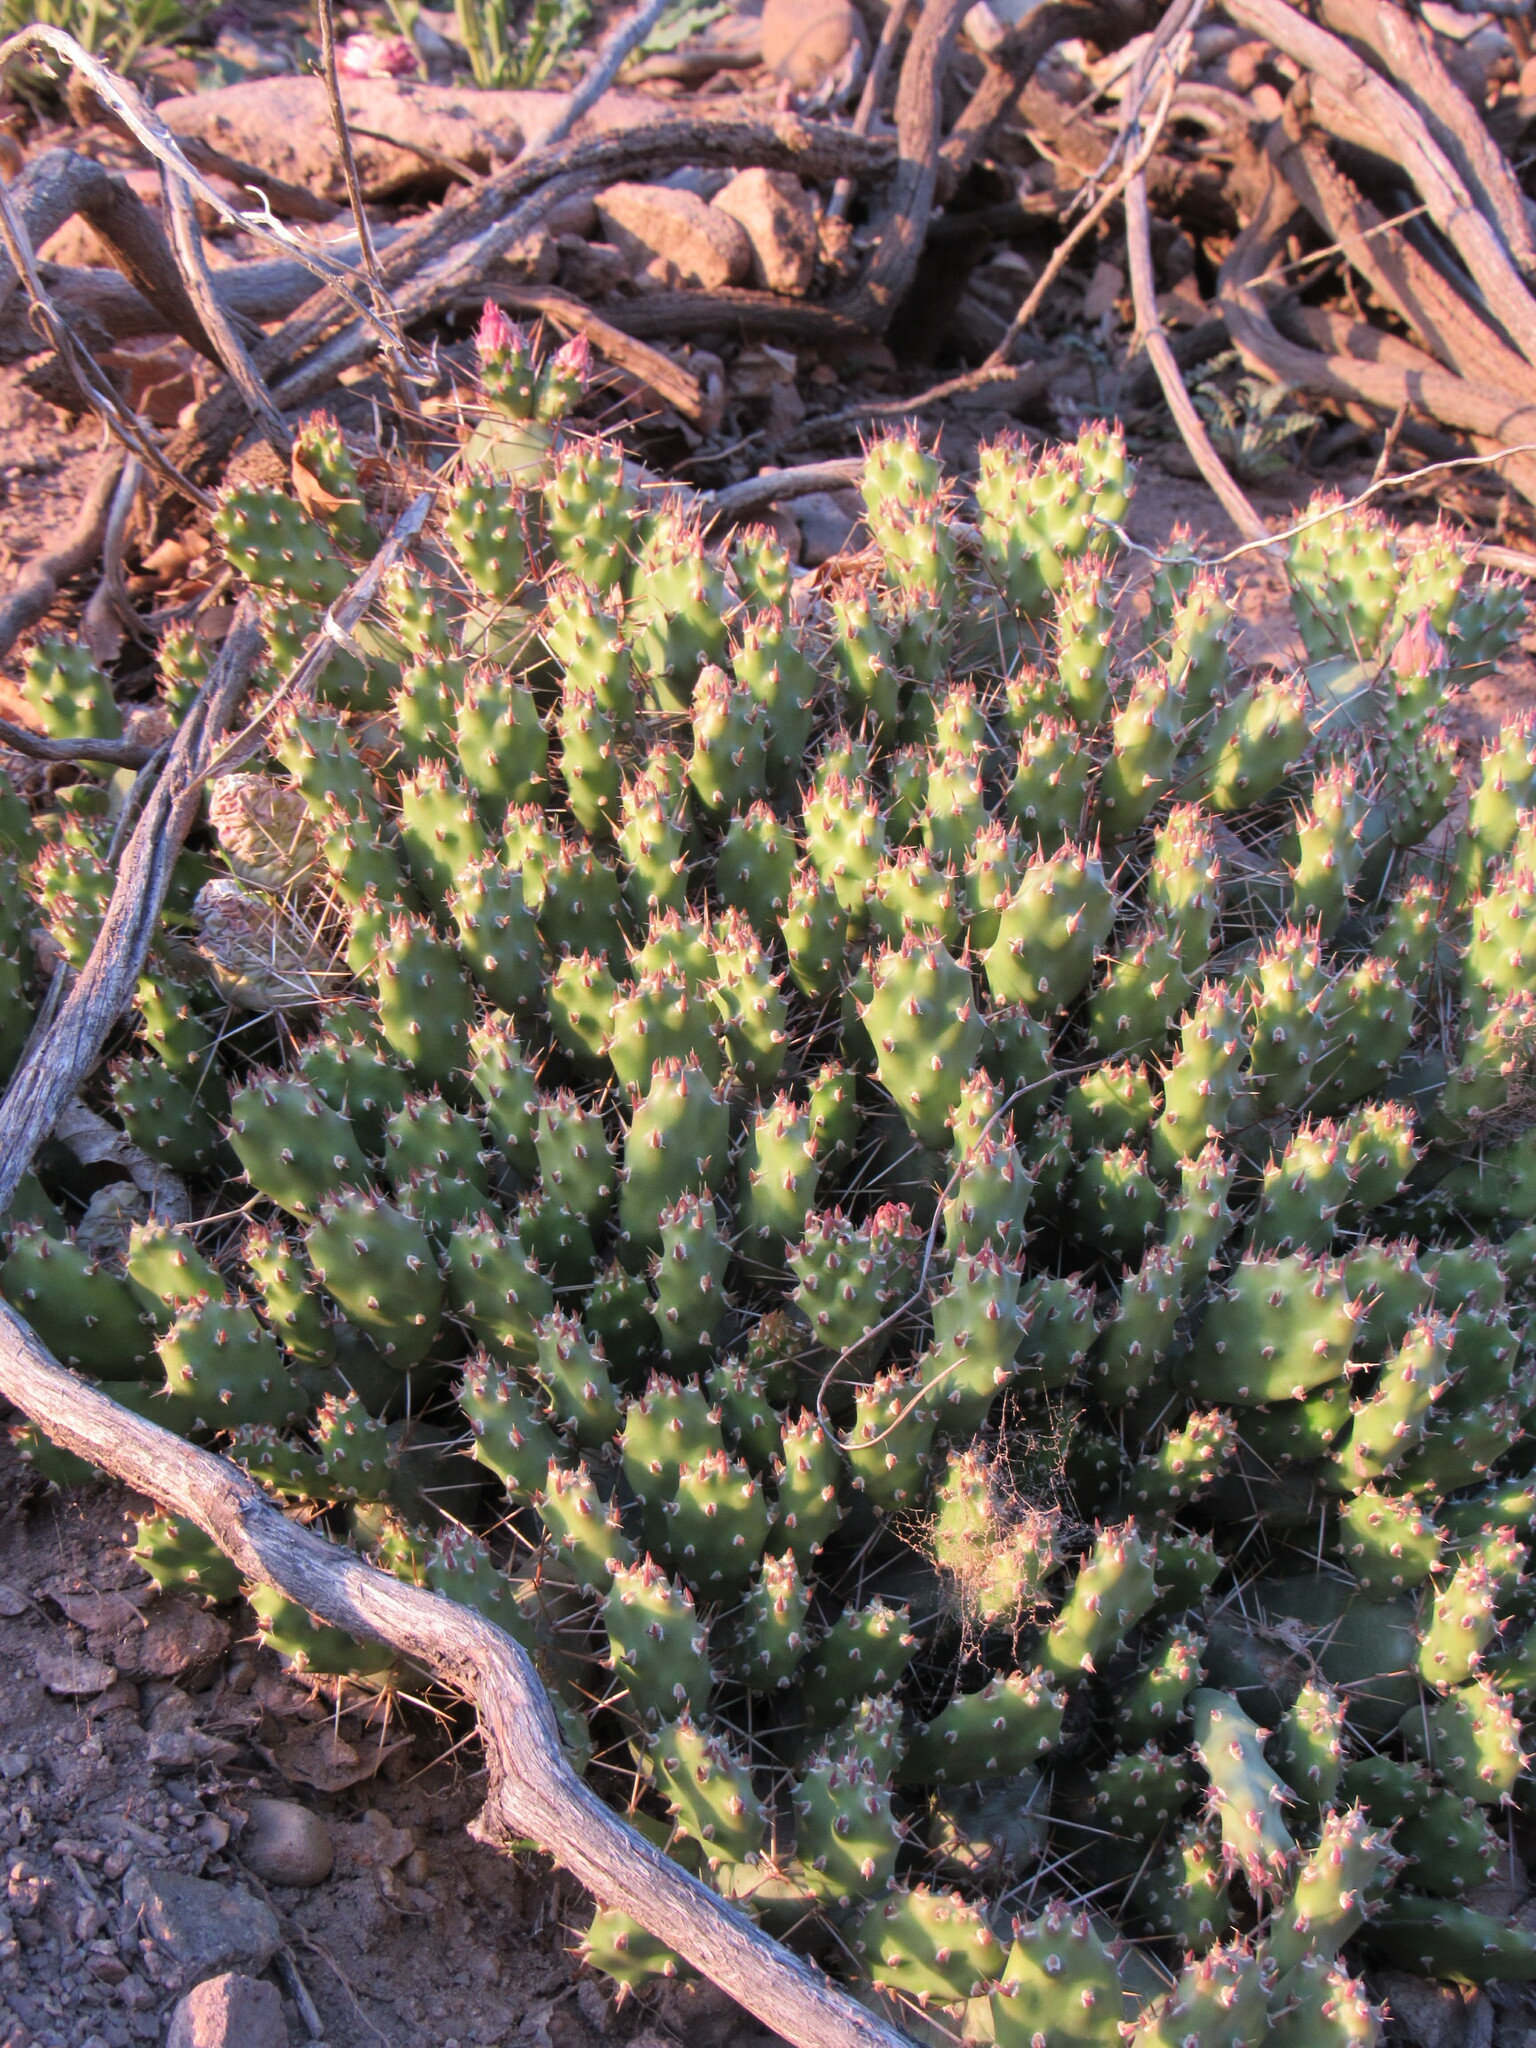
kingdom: Plantae
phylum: Tracheophyta
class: Magnoliopsida
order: Caryophyllales
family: Cactaceae
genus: Opuntia
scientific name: Opuntia fragilis
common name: Brittle cactus
